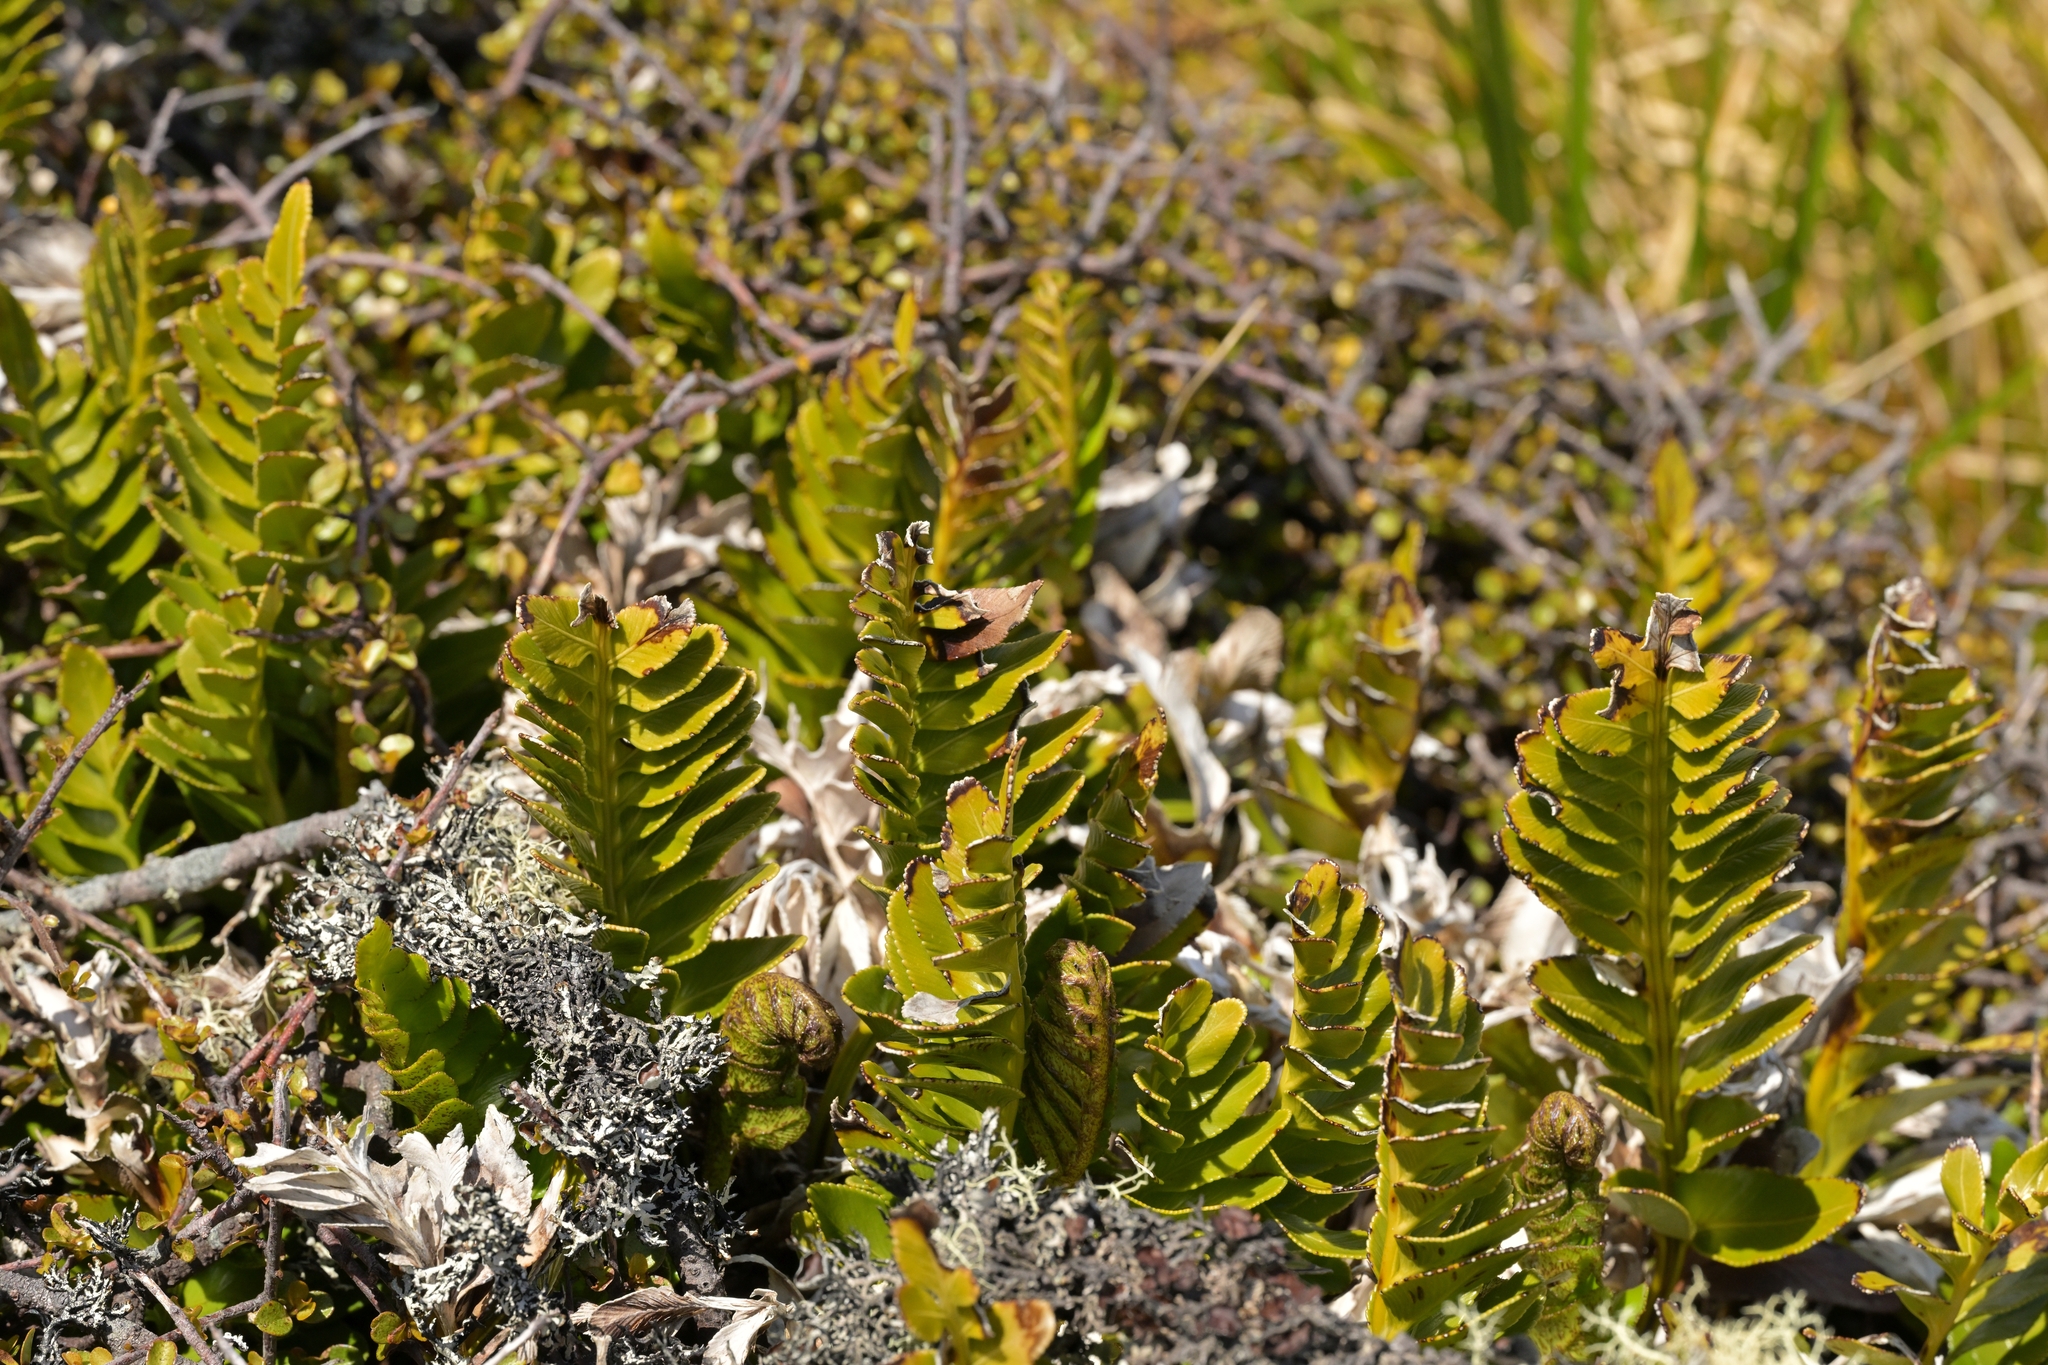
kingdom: Plantae
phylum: Tracheophyta
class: Polypodiopsida
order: Polypodiales
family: Aspleniaceae
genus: Asplenium
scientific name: Asplenium obtusatum
